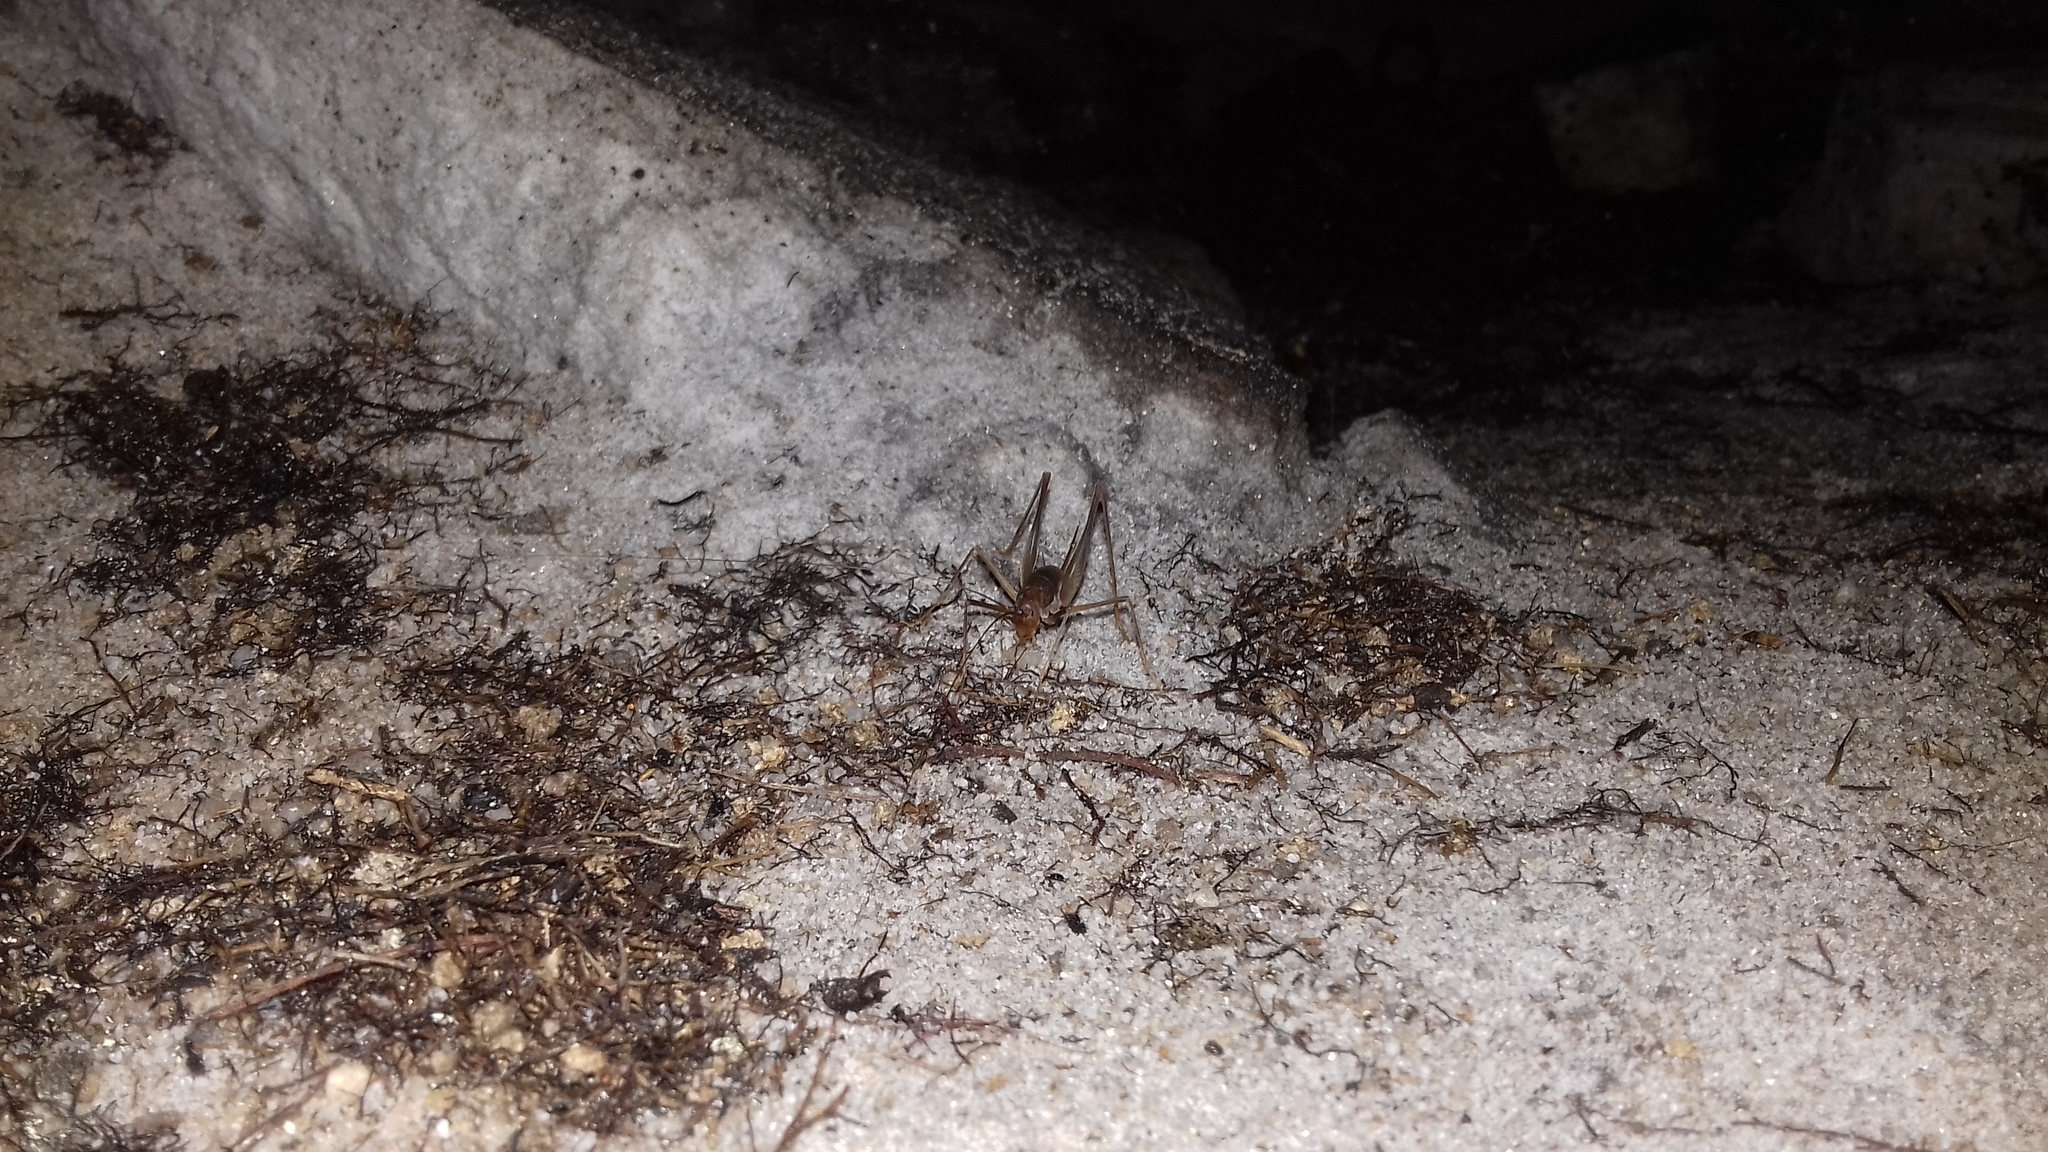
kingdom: Animalia
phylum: Arthropoda
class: Insecta
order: Orthoptera
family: Rhaphidophoridae
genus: Spelaeiacris
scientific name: Spelaeiacris tabulae
